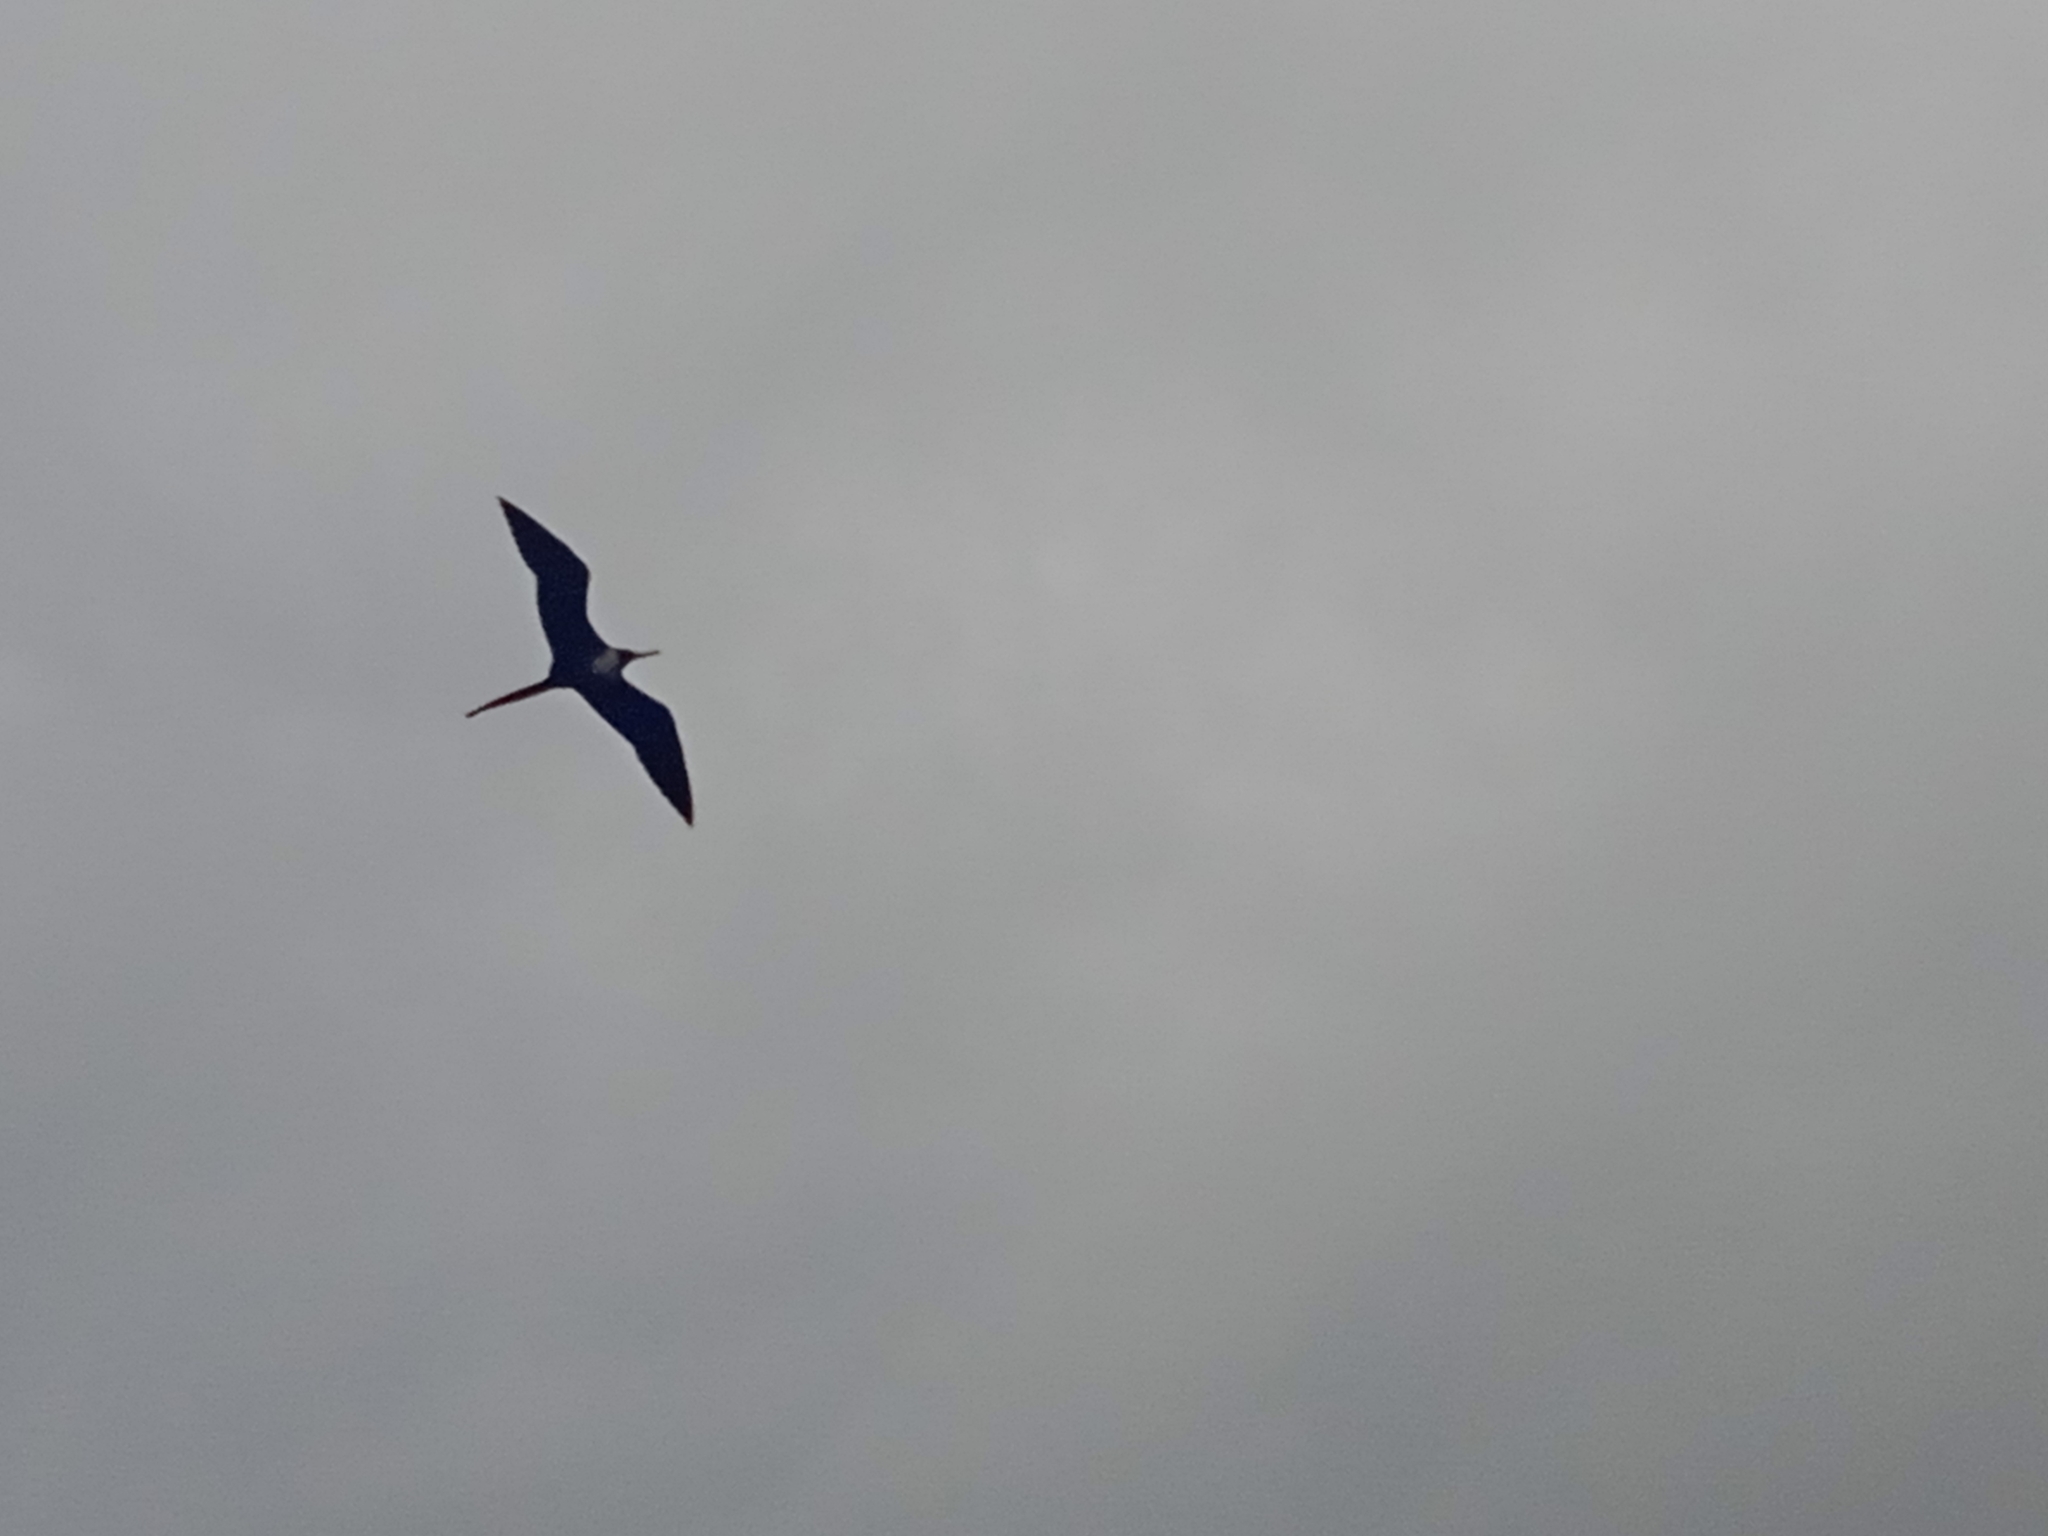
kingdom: Animalia
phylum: Chordata
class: Aves
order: Suliformes
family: Fregatidae
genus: Fregata
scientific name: Fregata magnificens
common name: Magnificent frigatebird
